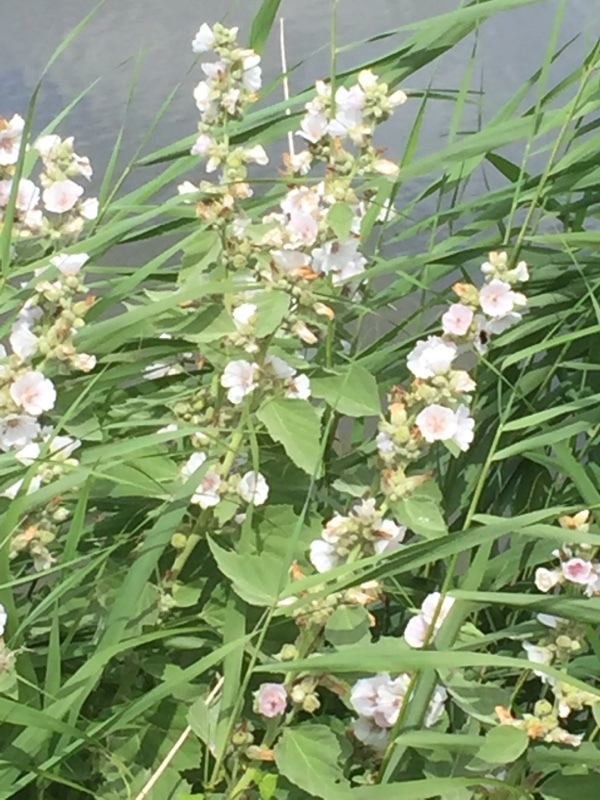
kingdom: Plantae
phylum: Tracheophyta
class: Magnoliopsida
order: Malvales
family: Malvaceae
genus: Althaea
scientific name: Althaea officinalis
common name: Marsh-mallow
